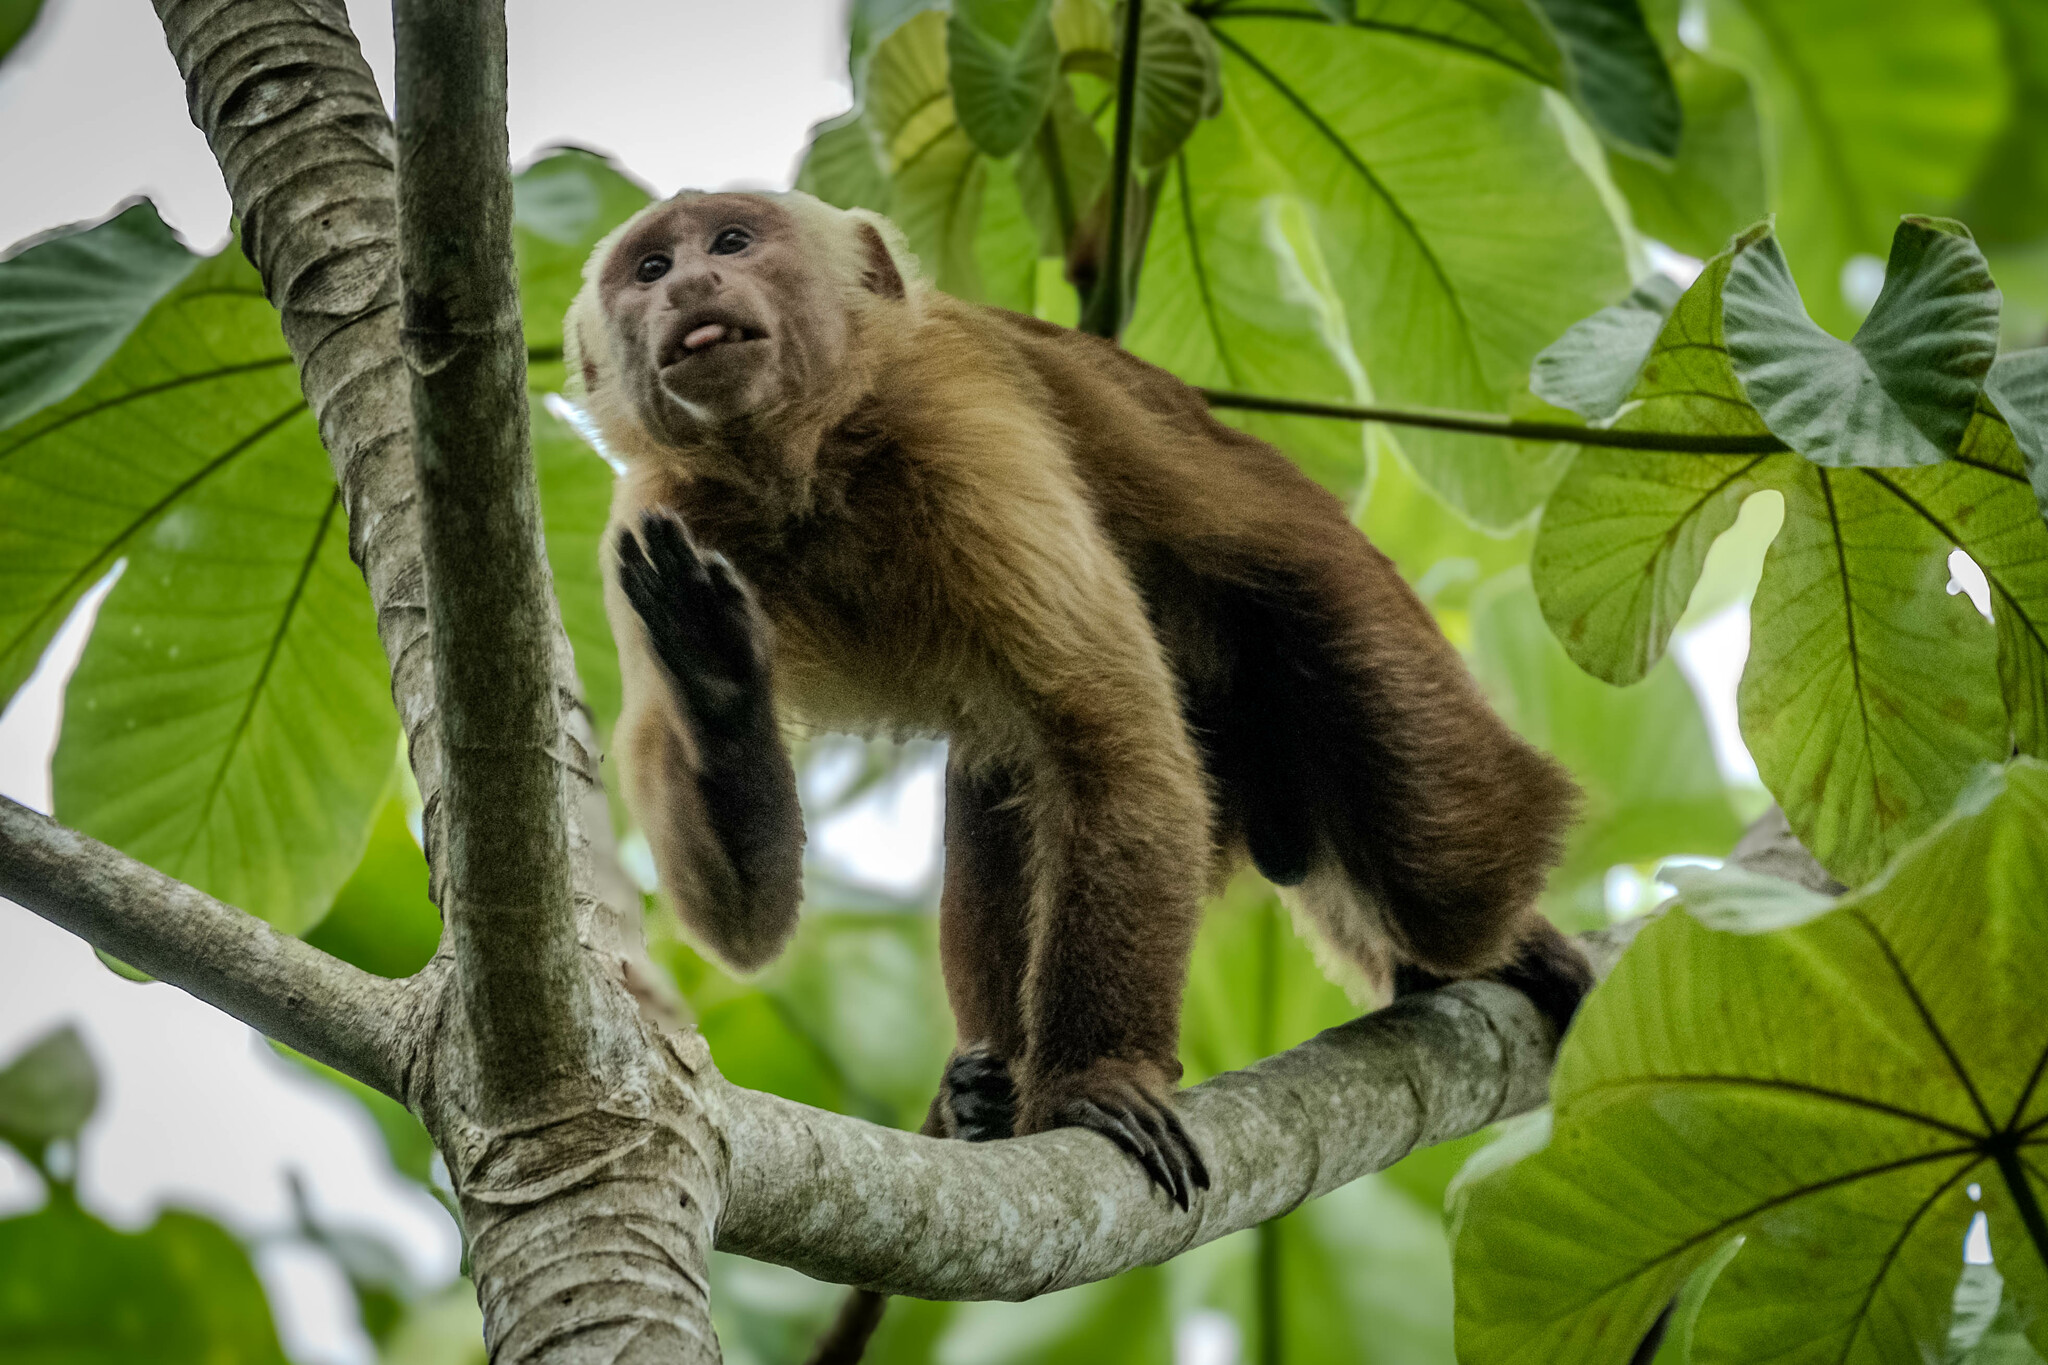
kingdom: Animalia
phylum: Chordata
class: Mammalia
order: Primates
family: Cebidae
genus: Cebus
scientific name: Cebus malitiosus
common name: Santa marta white-fronted capuchin
